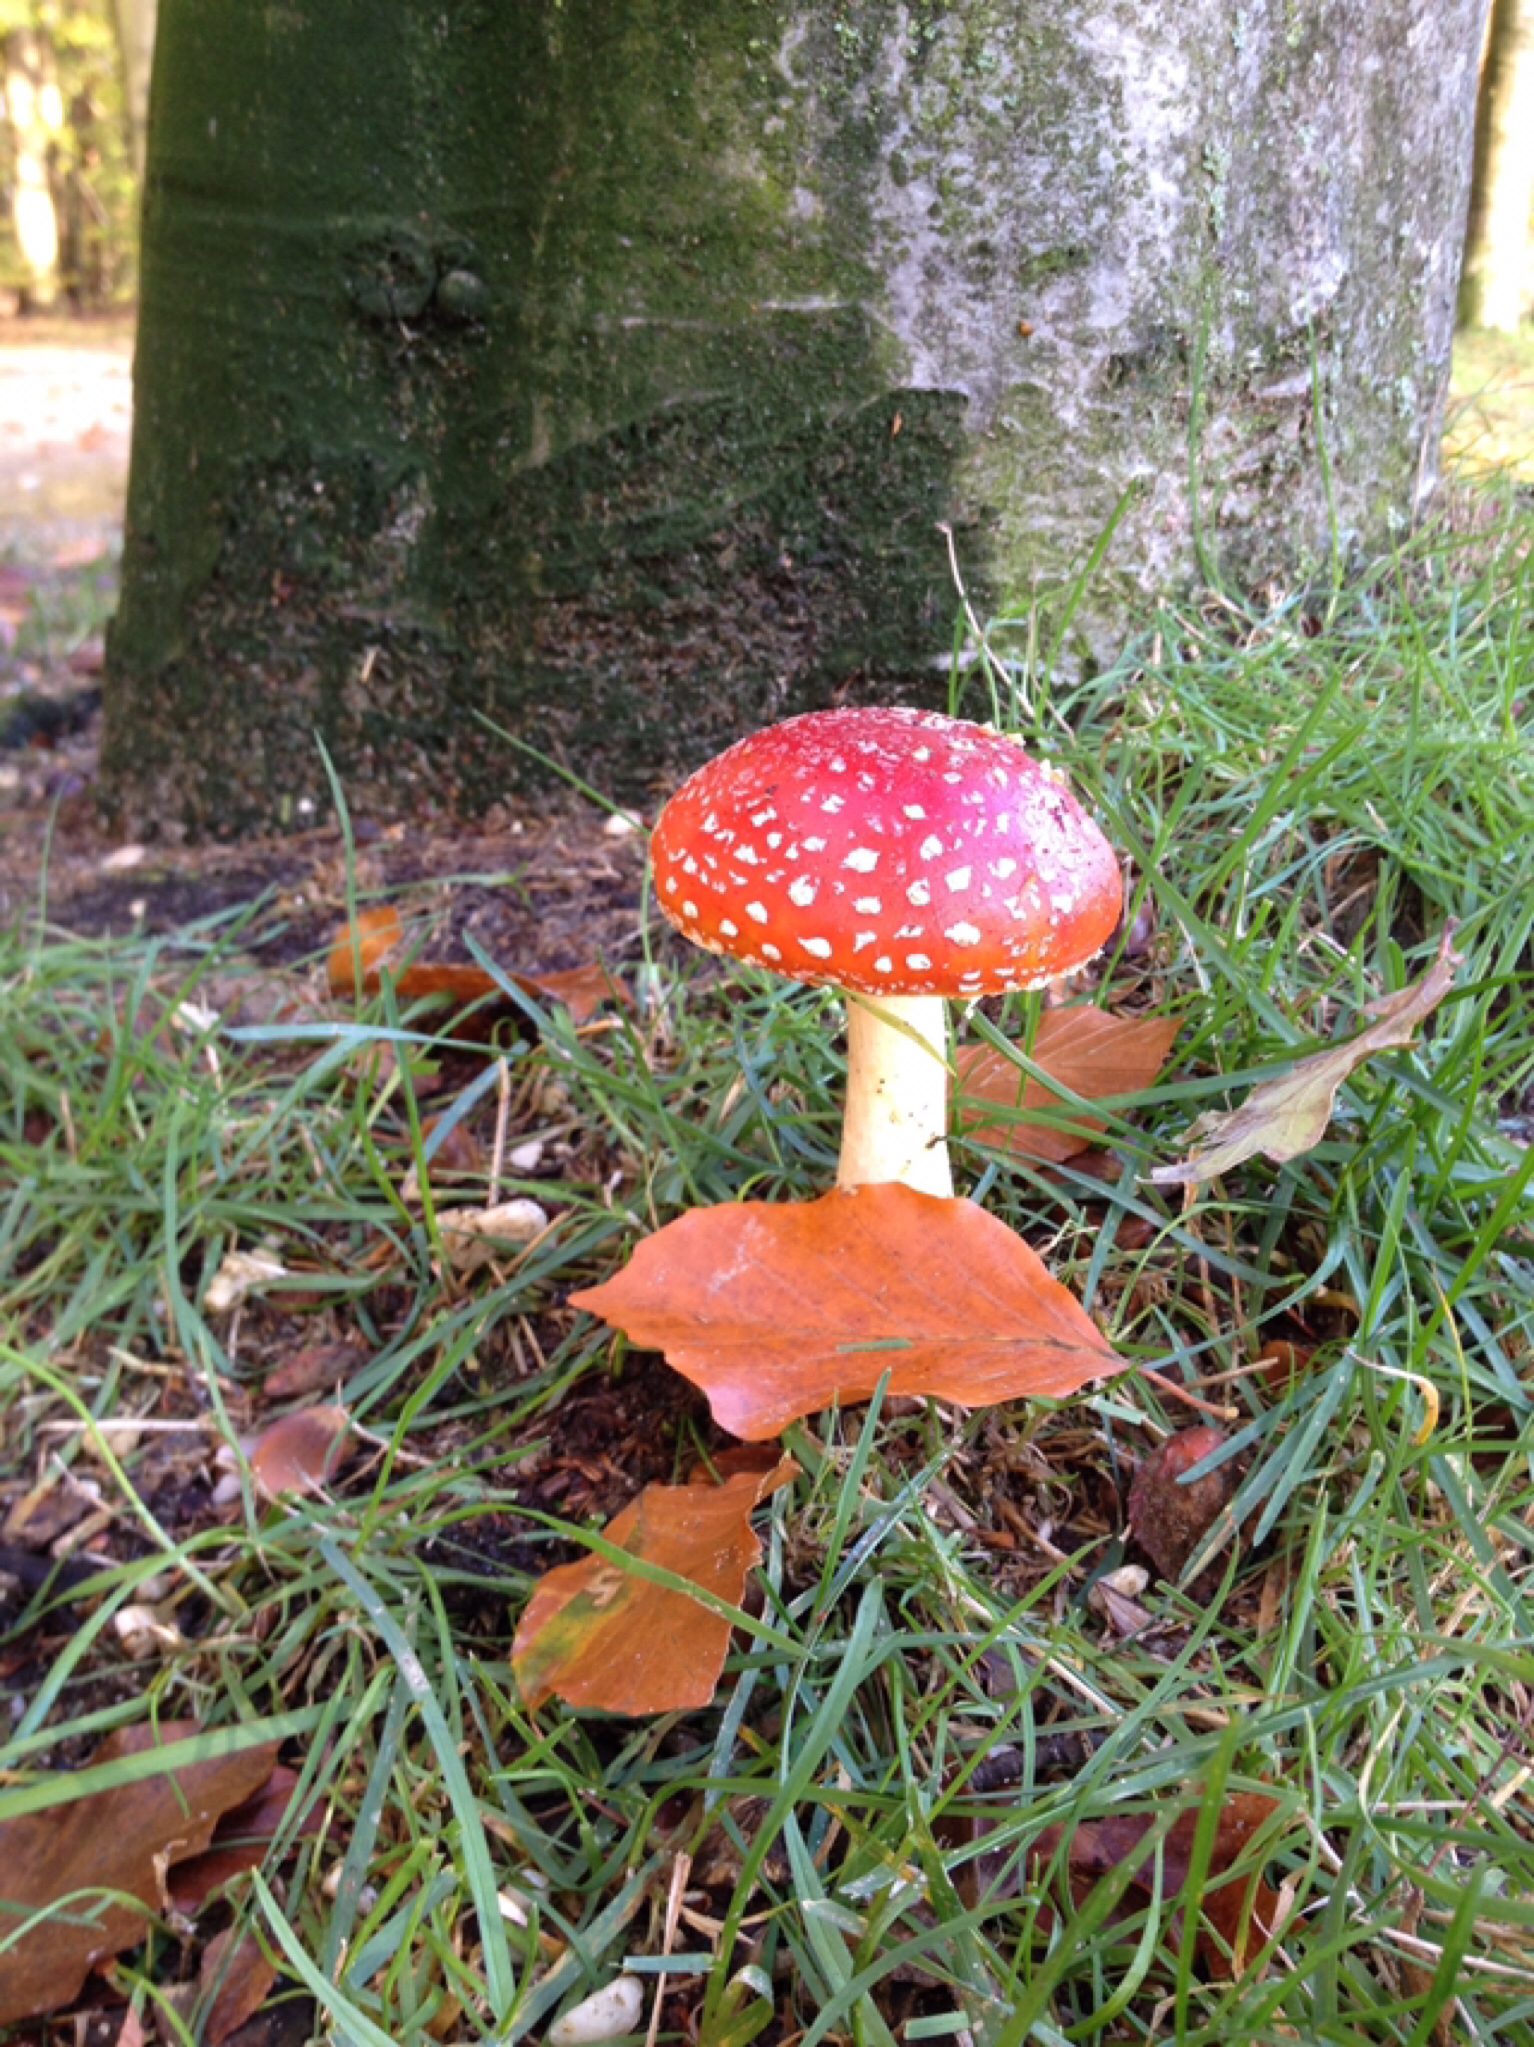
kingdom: Fungi
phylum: Basidiomycota
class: Agaricomycetes
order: Agaricales
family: Amanitaceae
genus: Amanita
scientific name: Amanita muscaria
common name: Fly agaric
